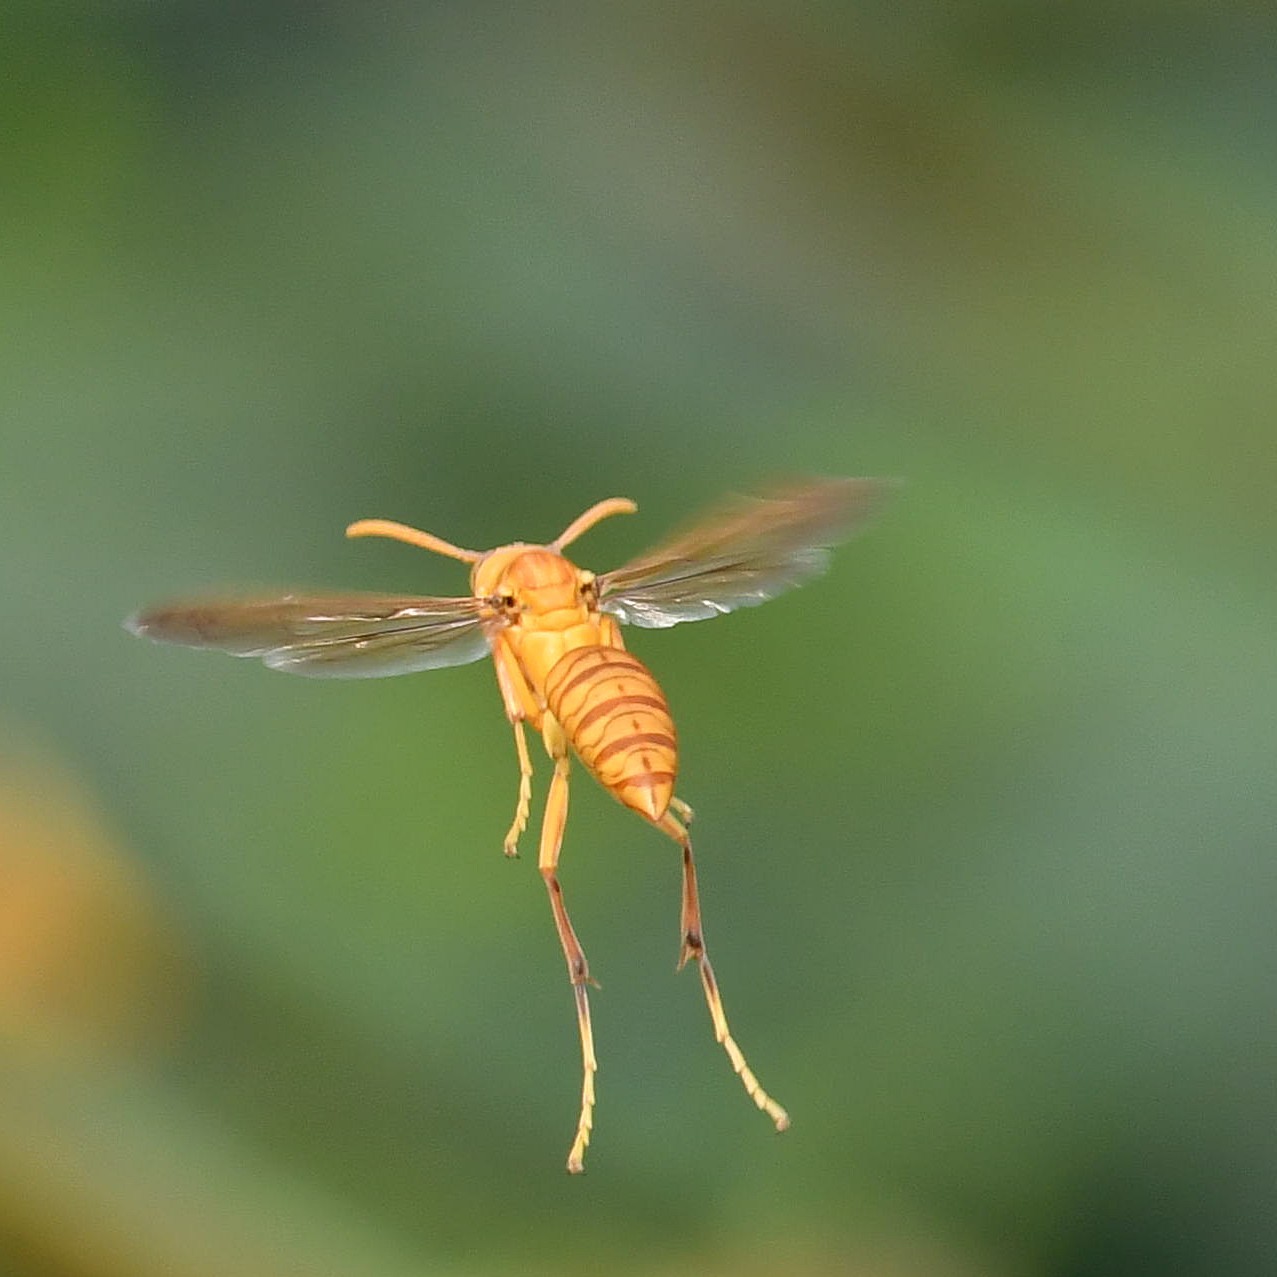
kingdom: Animalia
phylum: Arthropoda
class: Insecta
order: Hymenoptera
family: Eumenidae
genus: Polistes
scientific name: Polistes wattii
